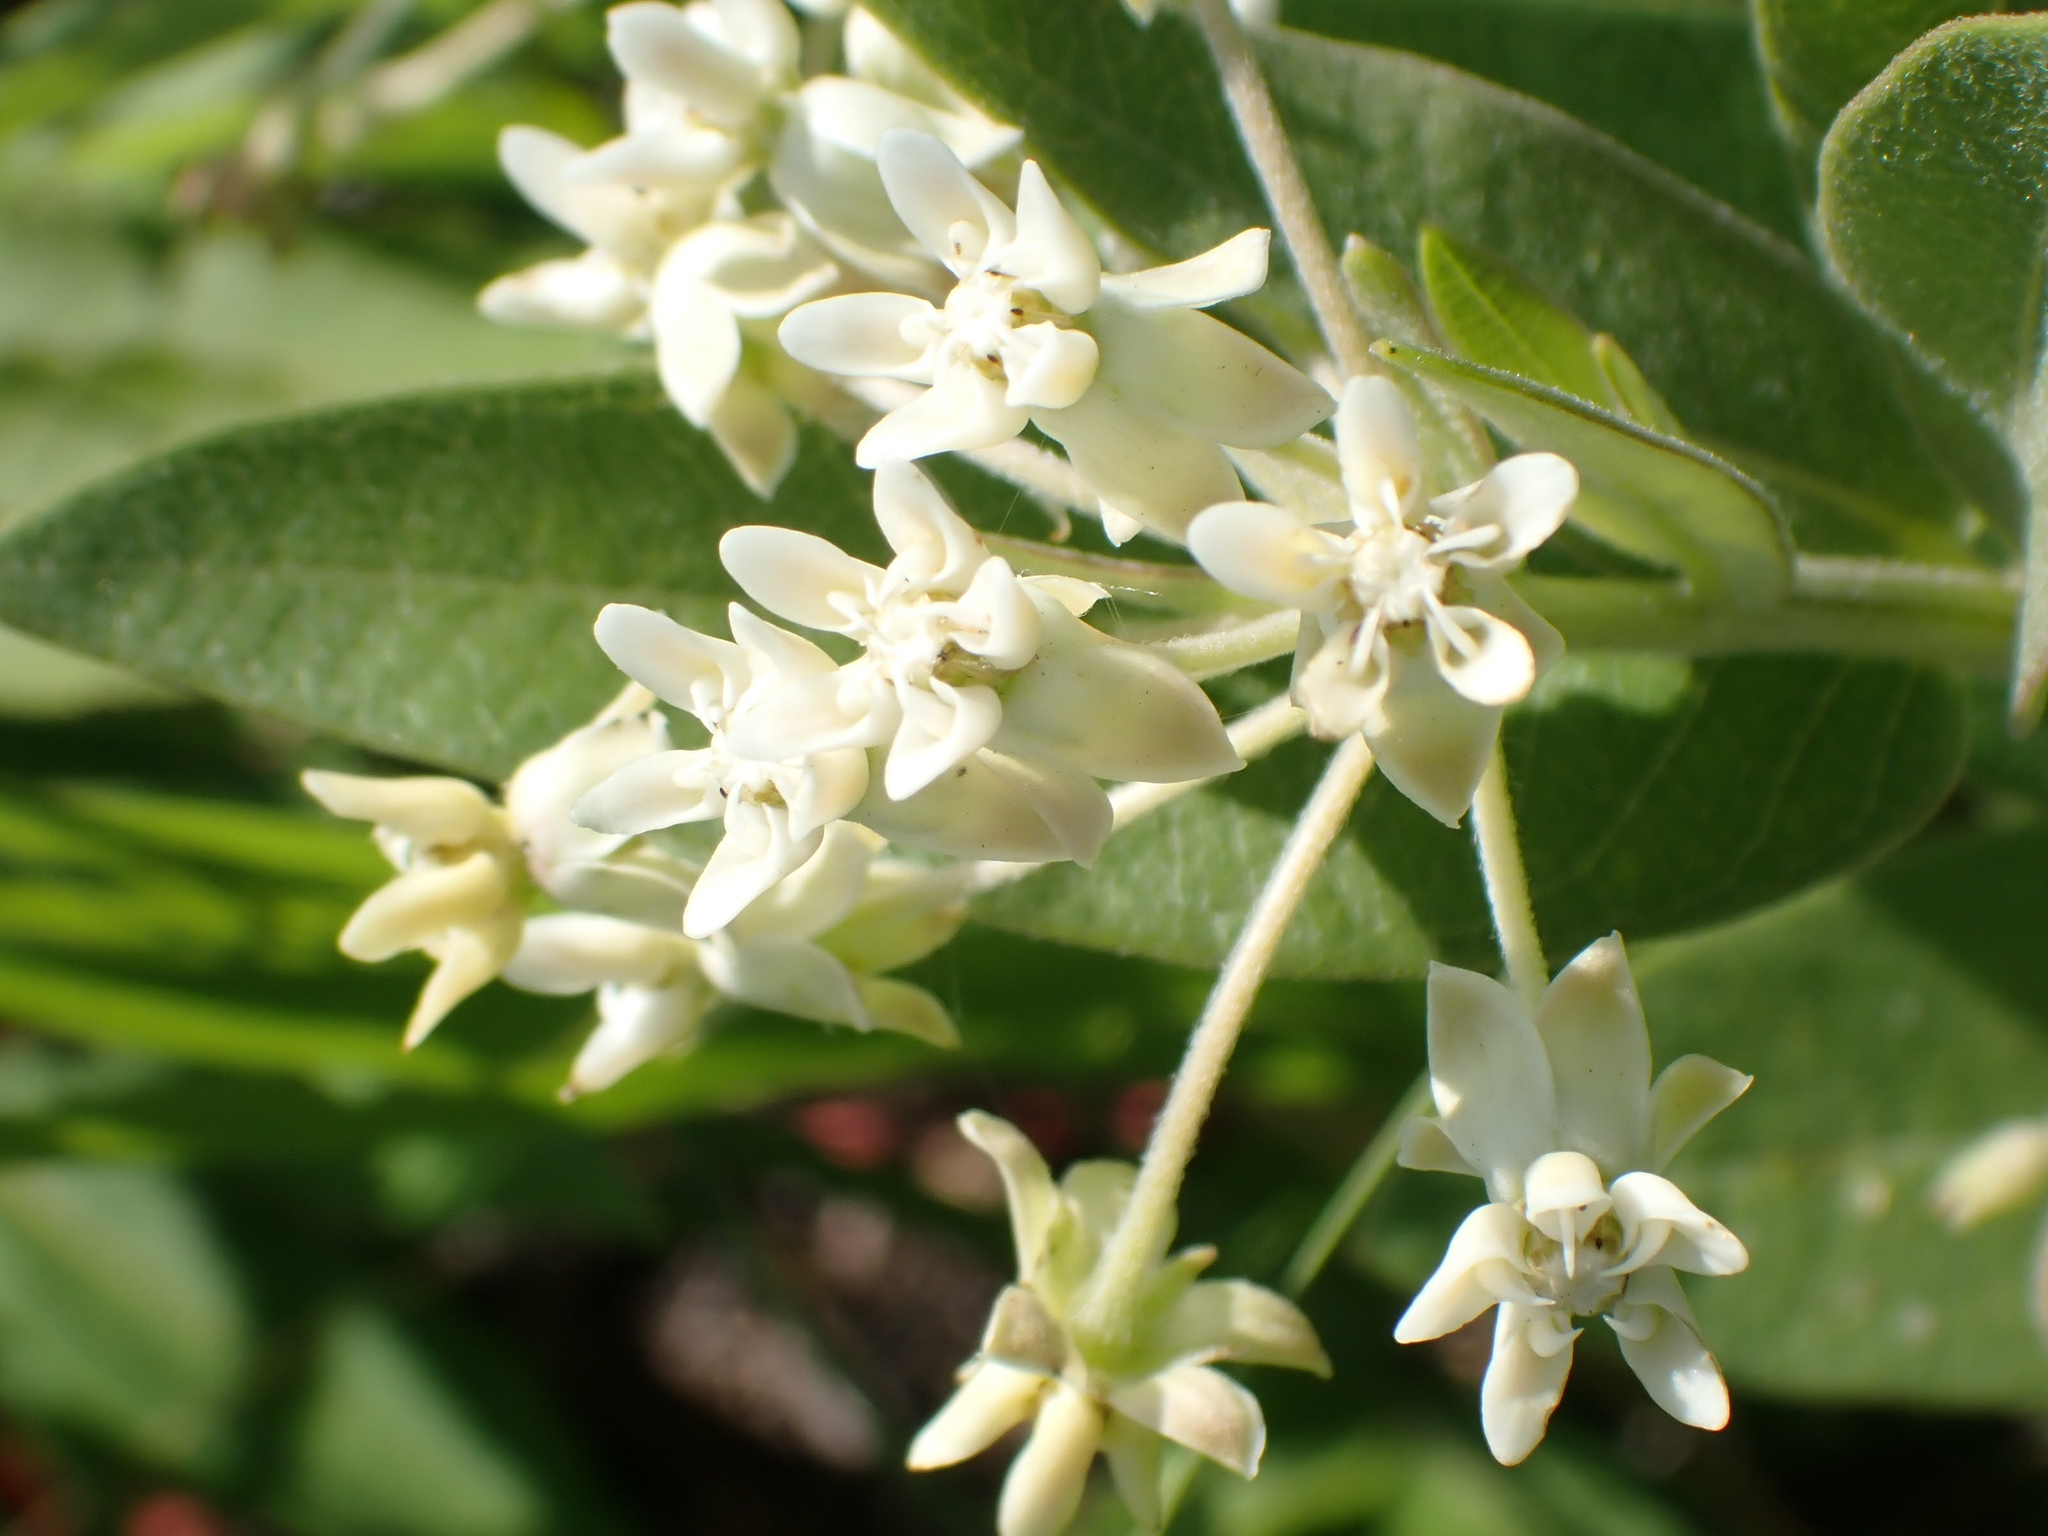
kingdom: Plantae
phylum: Tracheophyta
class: Magnoliopsida
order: Gentianales
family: Apocynaceae
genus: Asclepias
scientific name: Asclepias ovalifolia
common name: Dwarf milkweed
